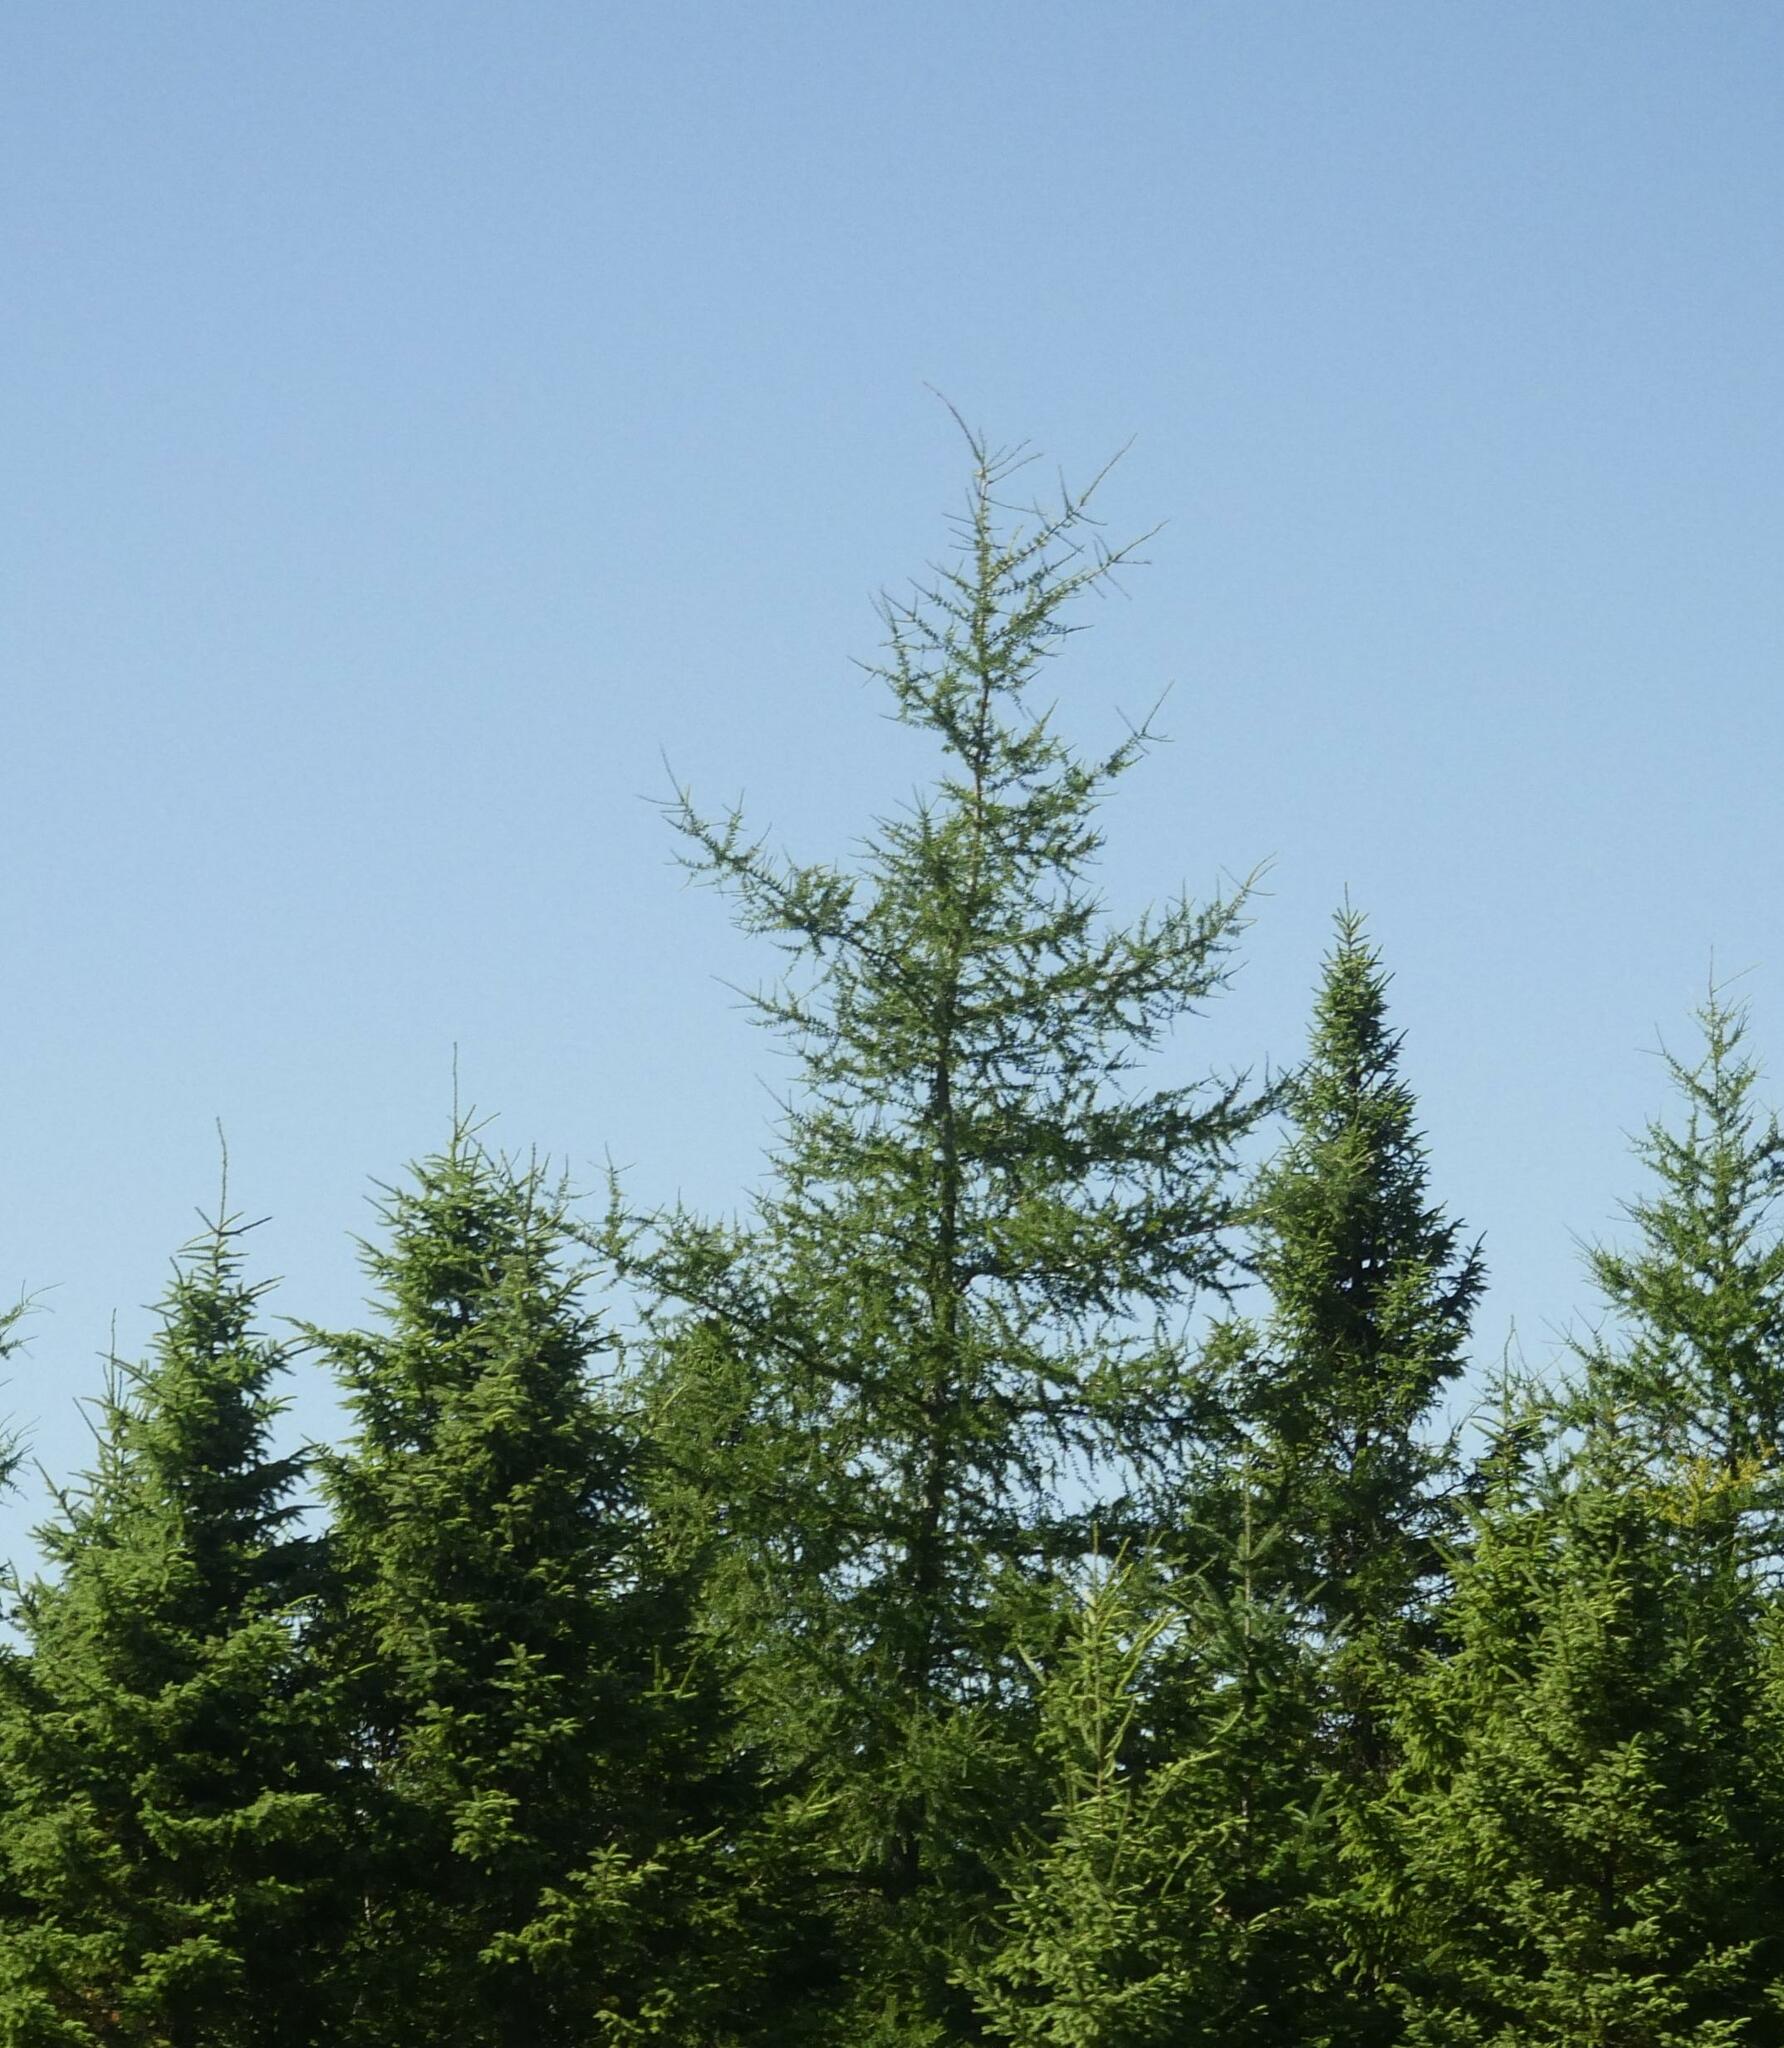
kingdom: Plantae
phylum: Tracheophyta
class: Pinopsida
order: Pinales
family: Pinaceae
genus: Larix
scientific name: Larix laricina
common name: American larch
